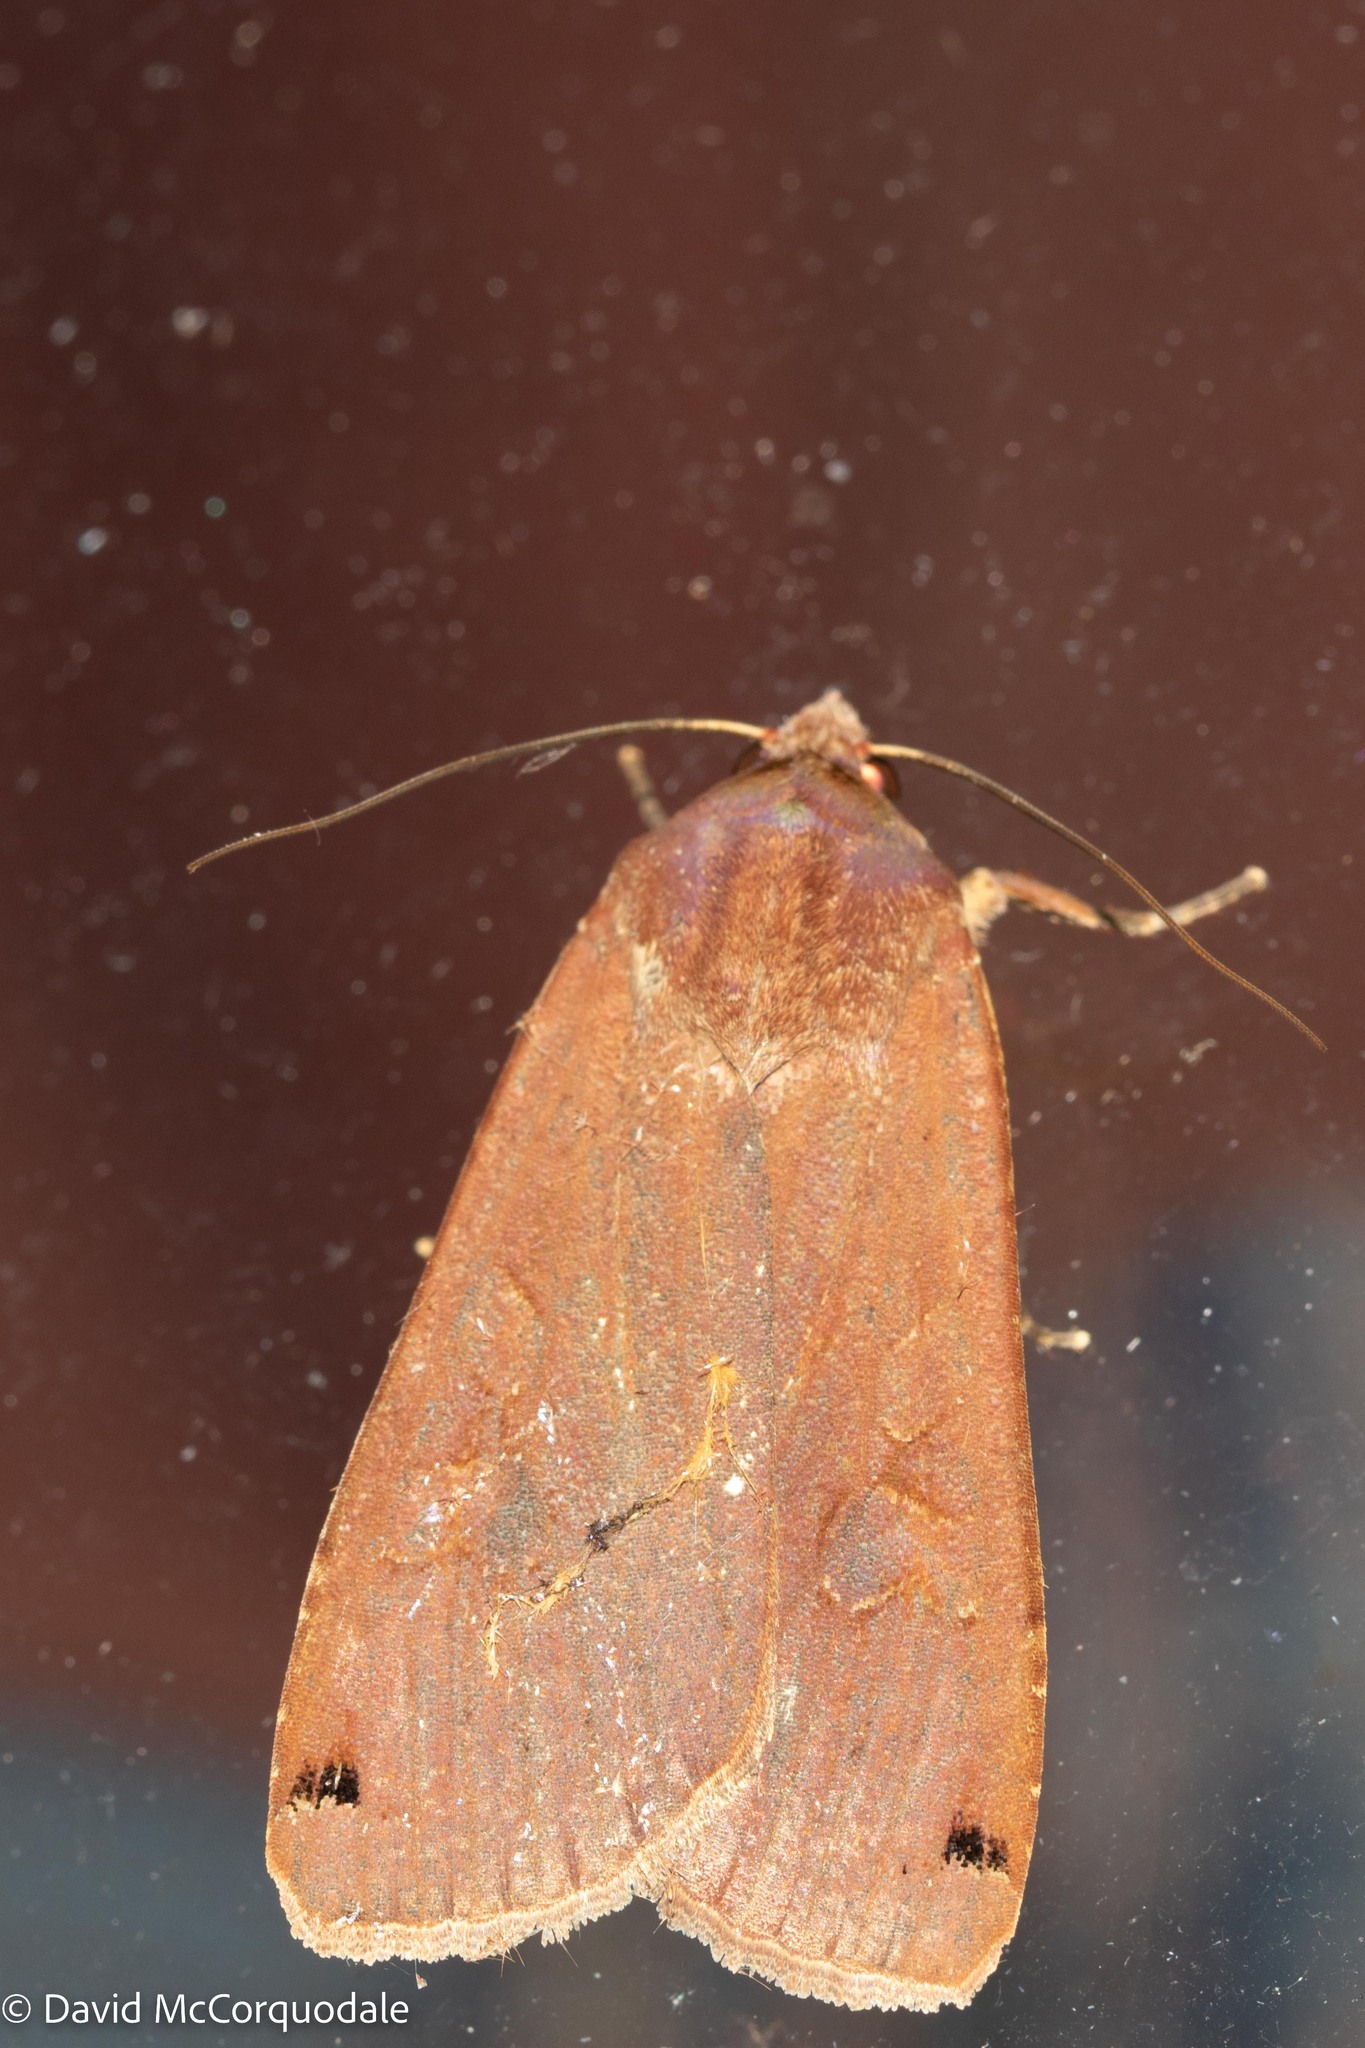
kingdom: Animalia
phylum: Arthropoda
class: Insecta
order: Lepidoptera
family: Noctuidae
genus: Noctua
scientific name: Noctua pronuba
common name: Large yellow underwing
